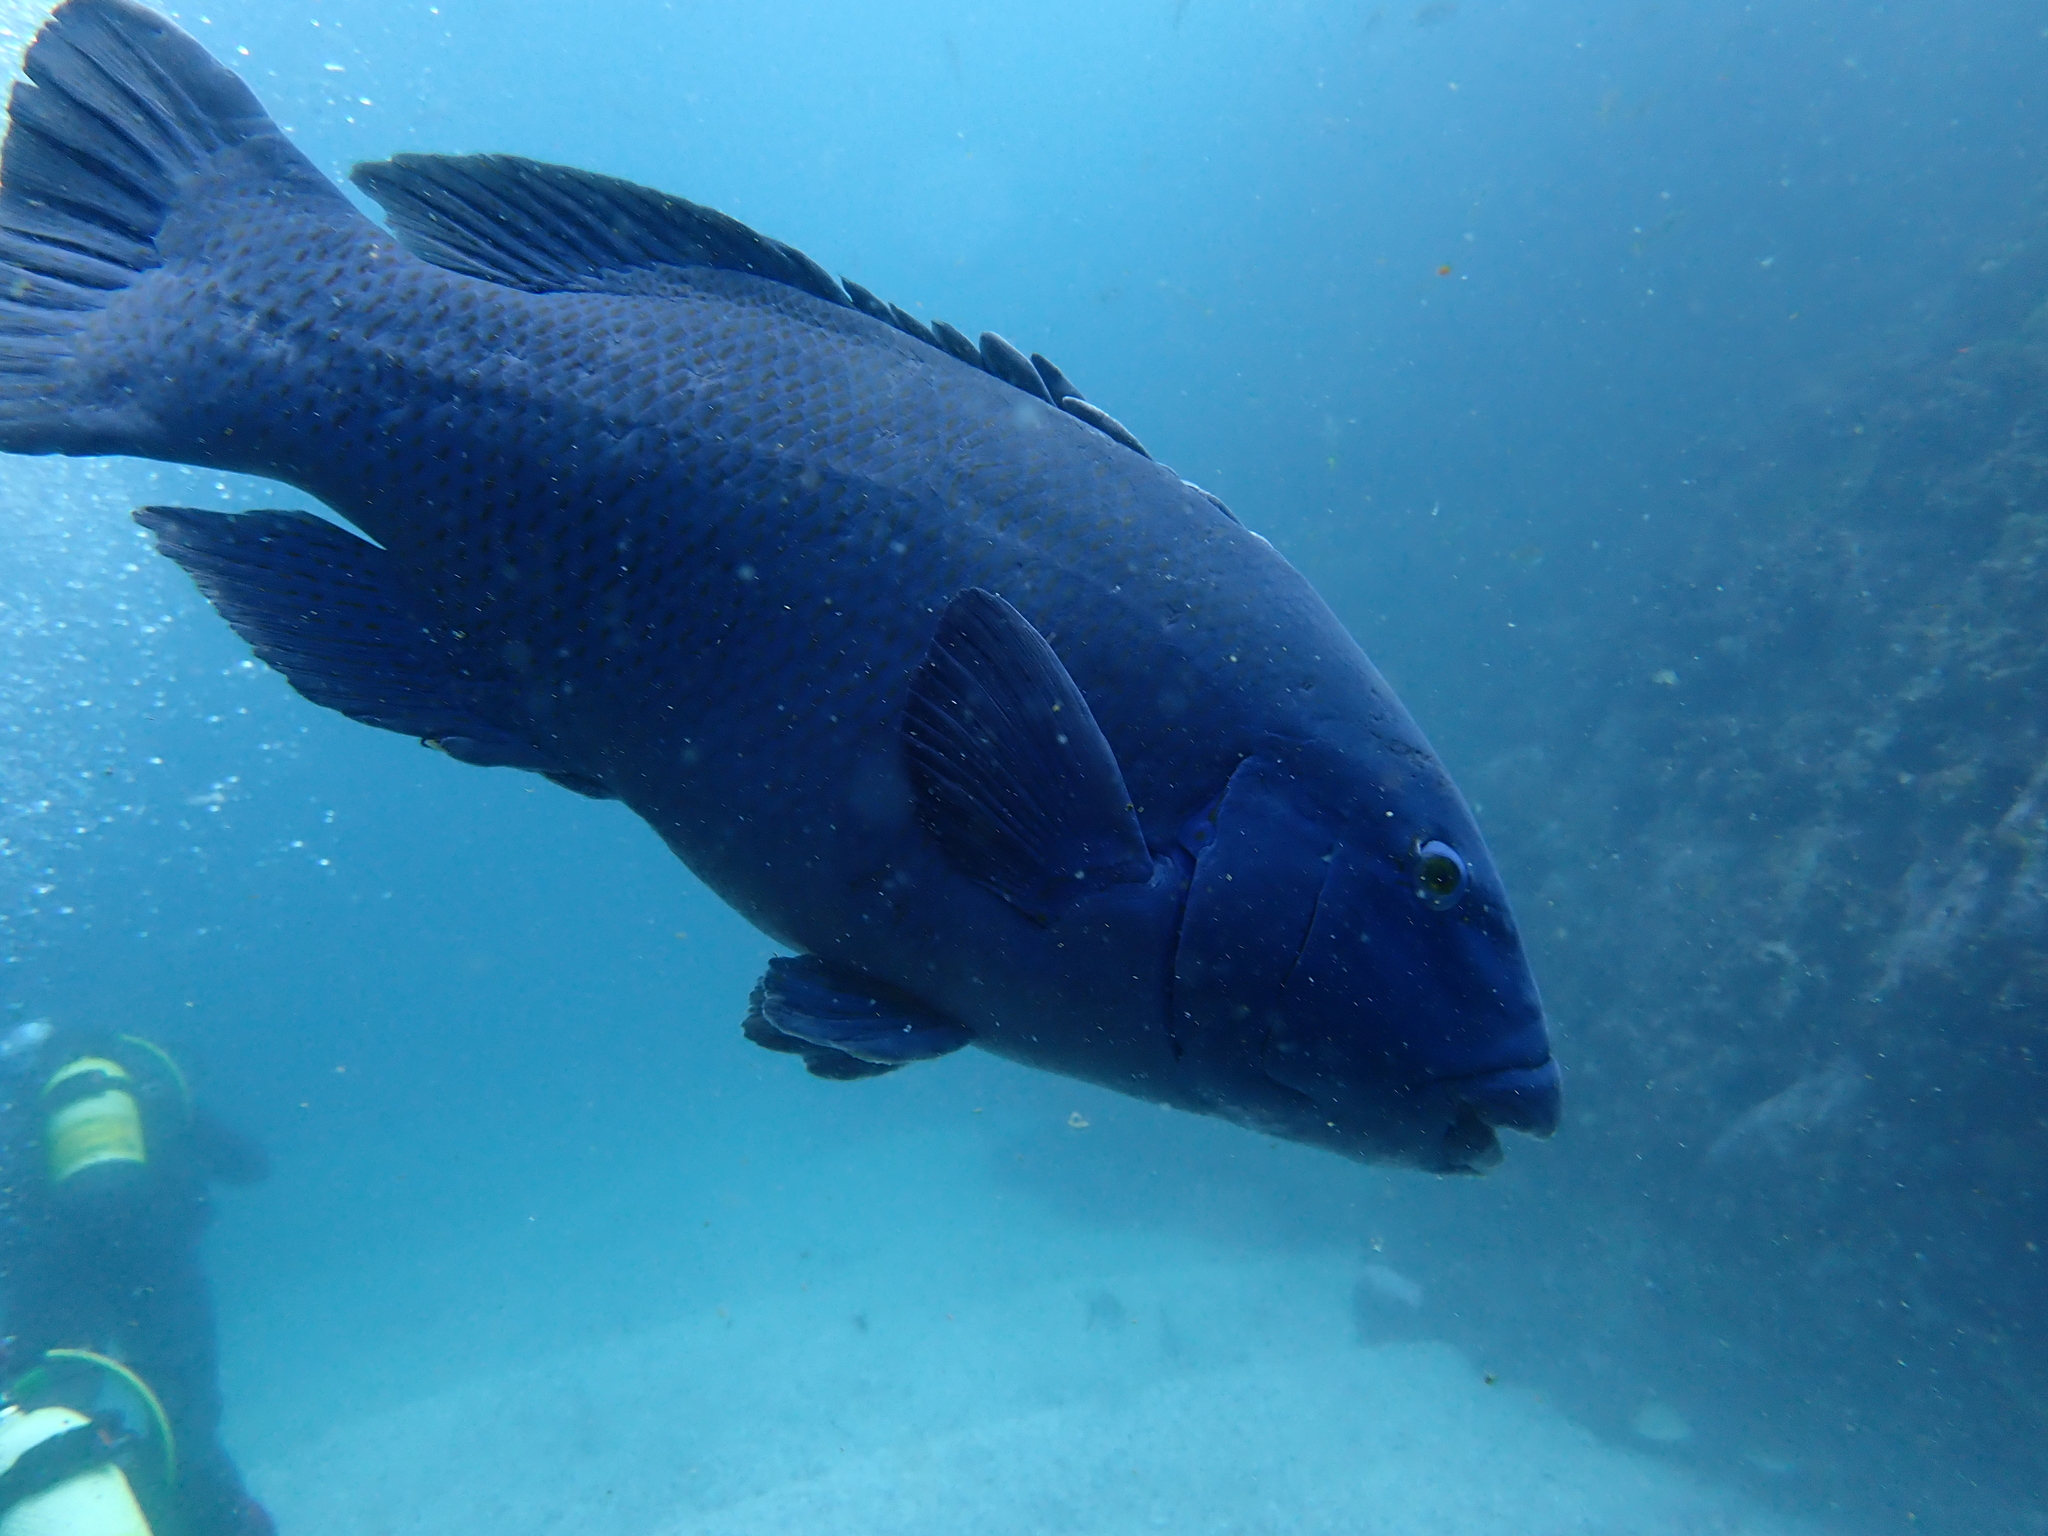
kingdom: Animalia
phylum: Chordata
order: Perciformes
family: Labridae
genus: Achoerodus
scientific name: Achoerodus viridis
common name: Brown groper
